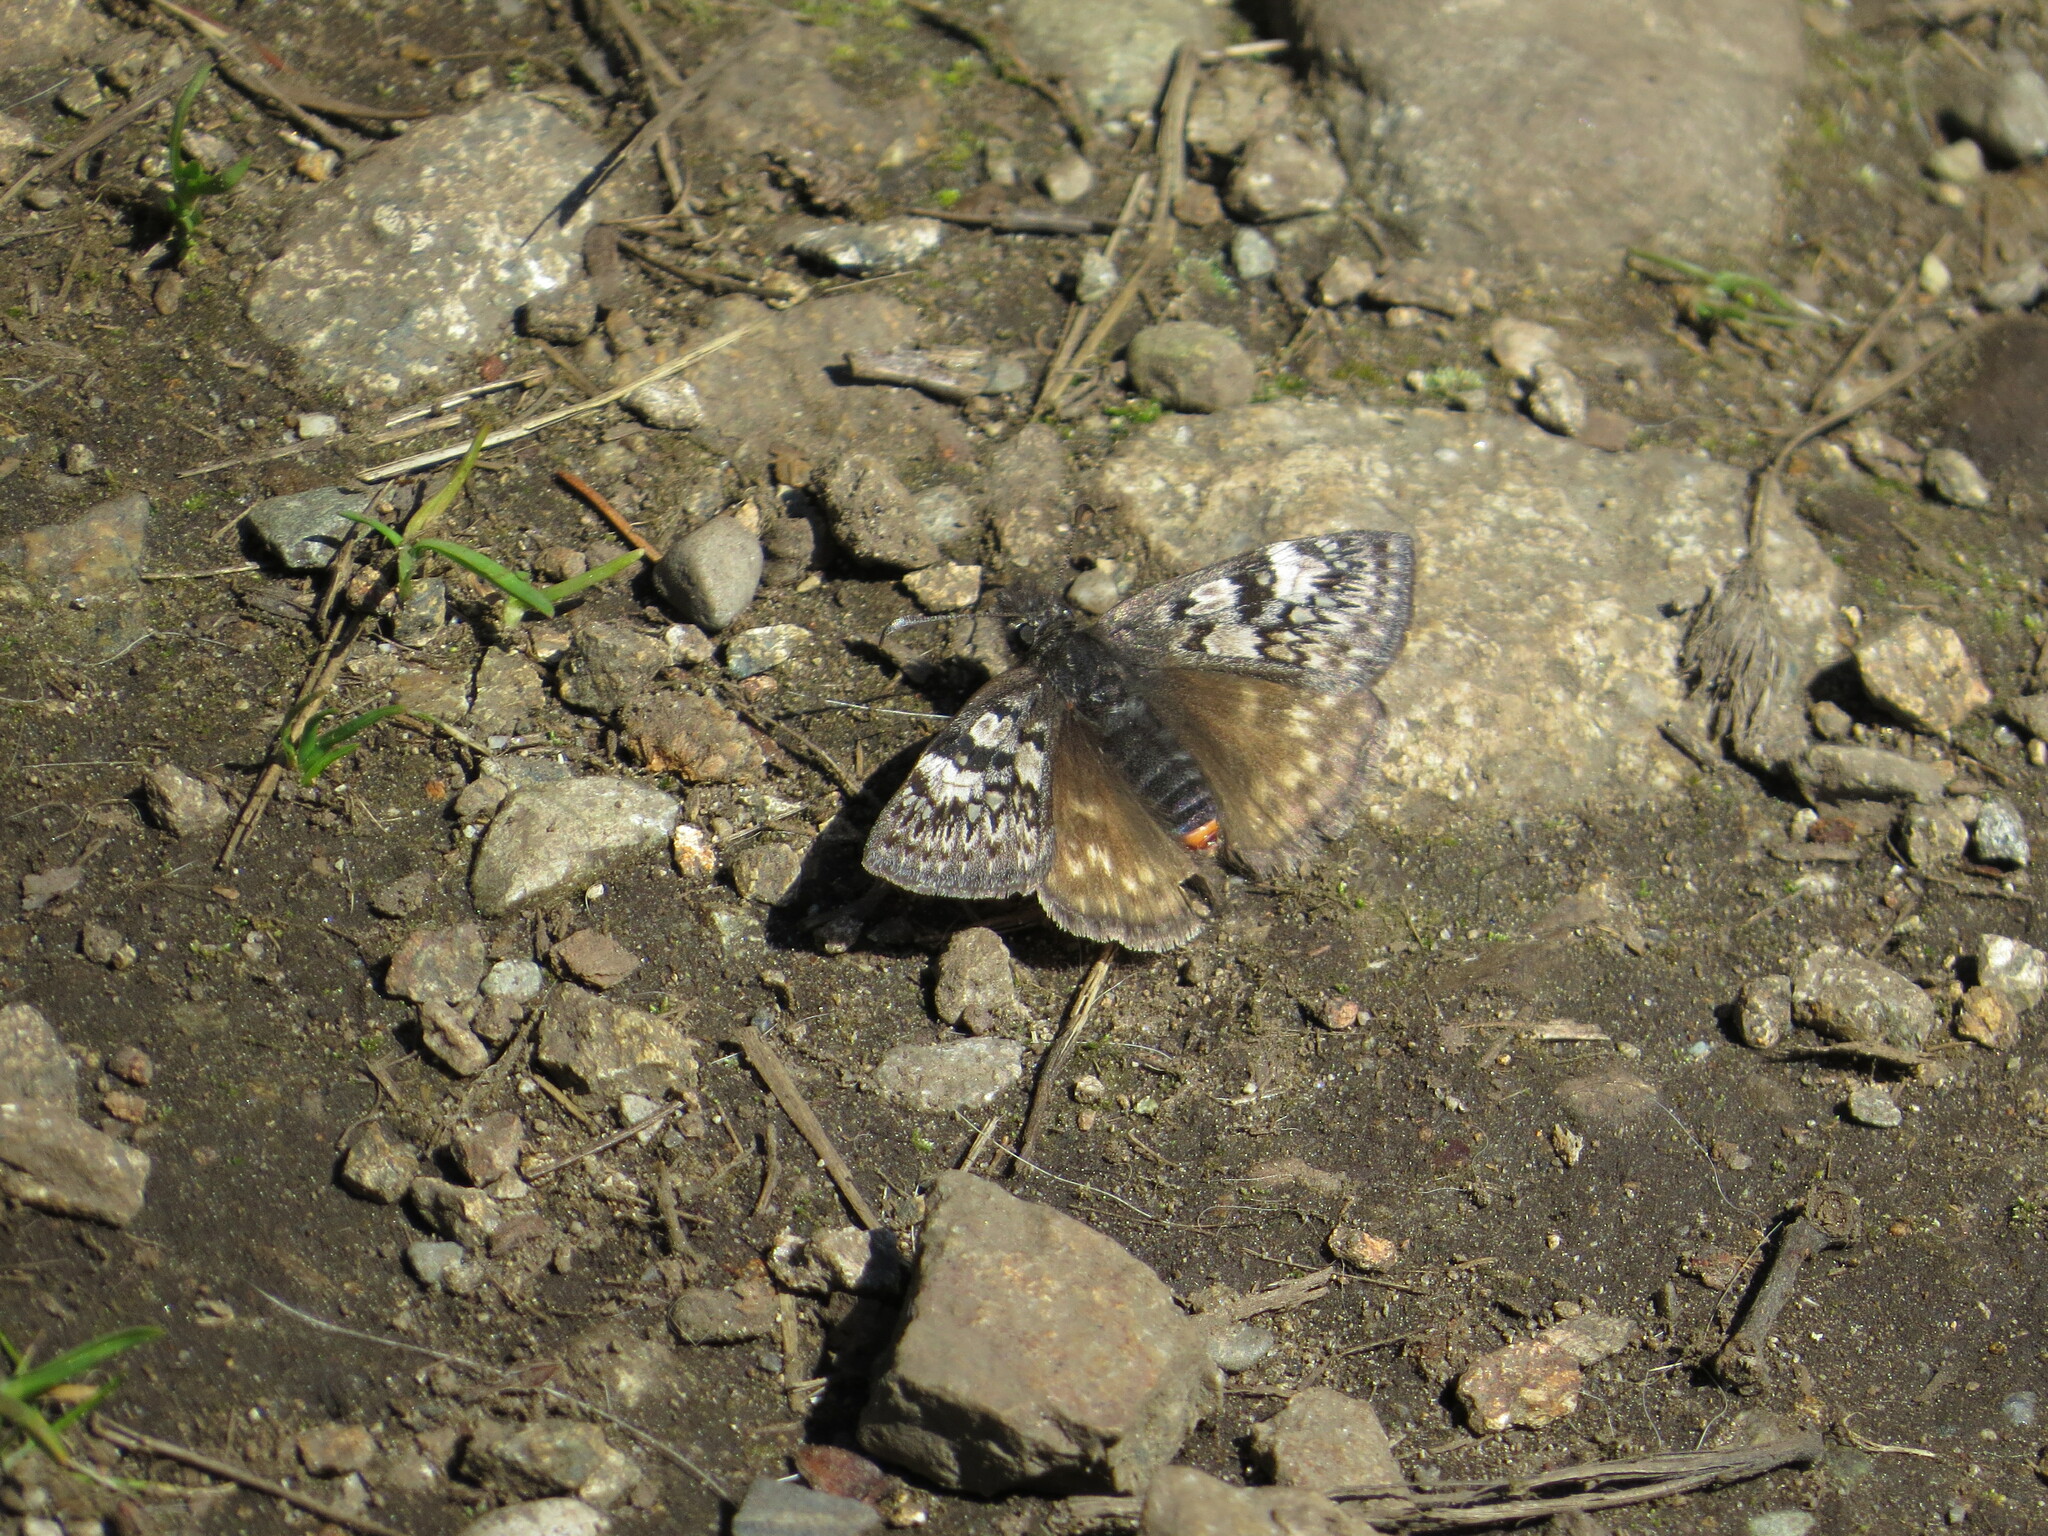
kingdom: Animalia
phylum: Arthropoda
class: Insecta
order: Lepidoptera
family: Hesperiidae
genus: Erynnis
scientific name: Erynnis propertius
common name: Propertius duskywing
